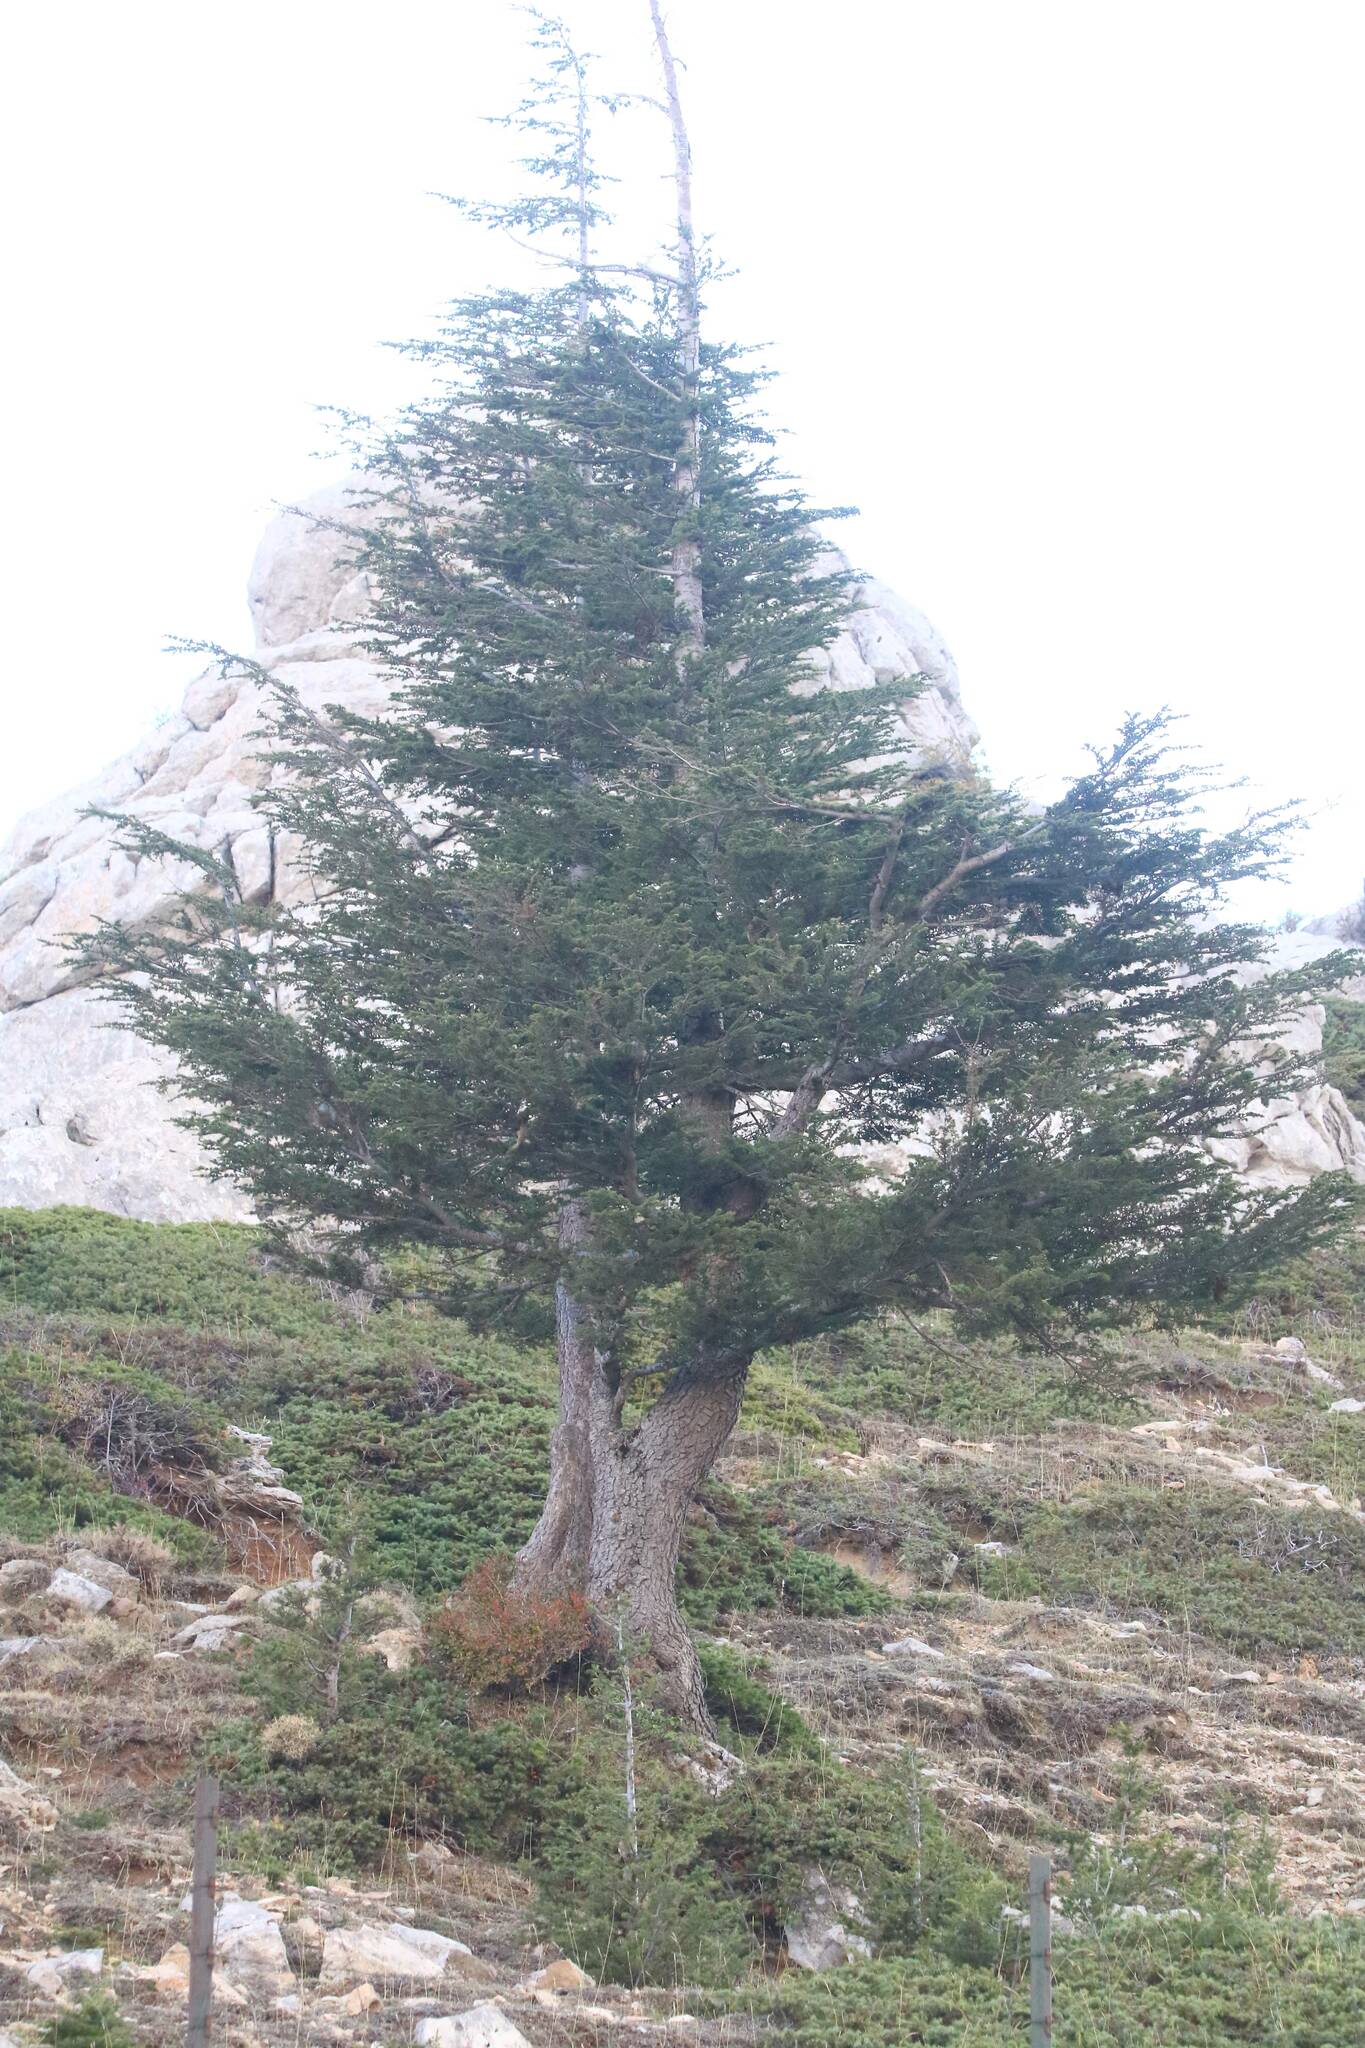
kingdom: Plantae
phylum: Tracheophyta
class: Pinopsida
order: Pinales
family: Pinaceae
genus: Cedrus
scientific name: Cedrus atlantica
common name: Atlas cedar
